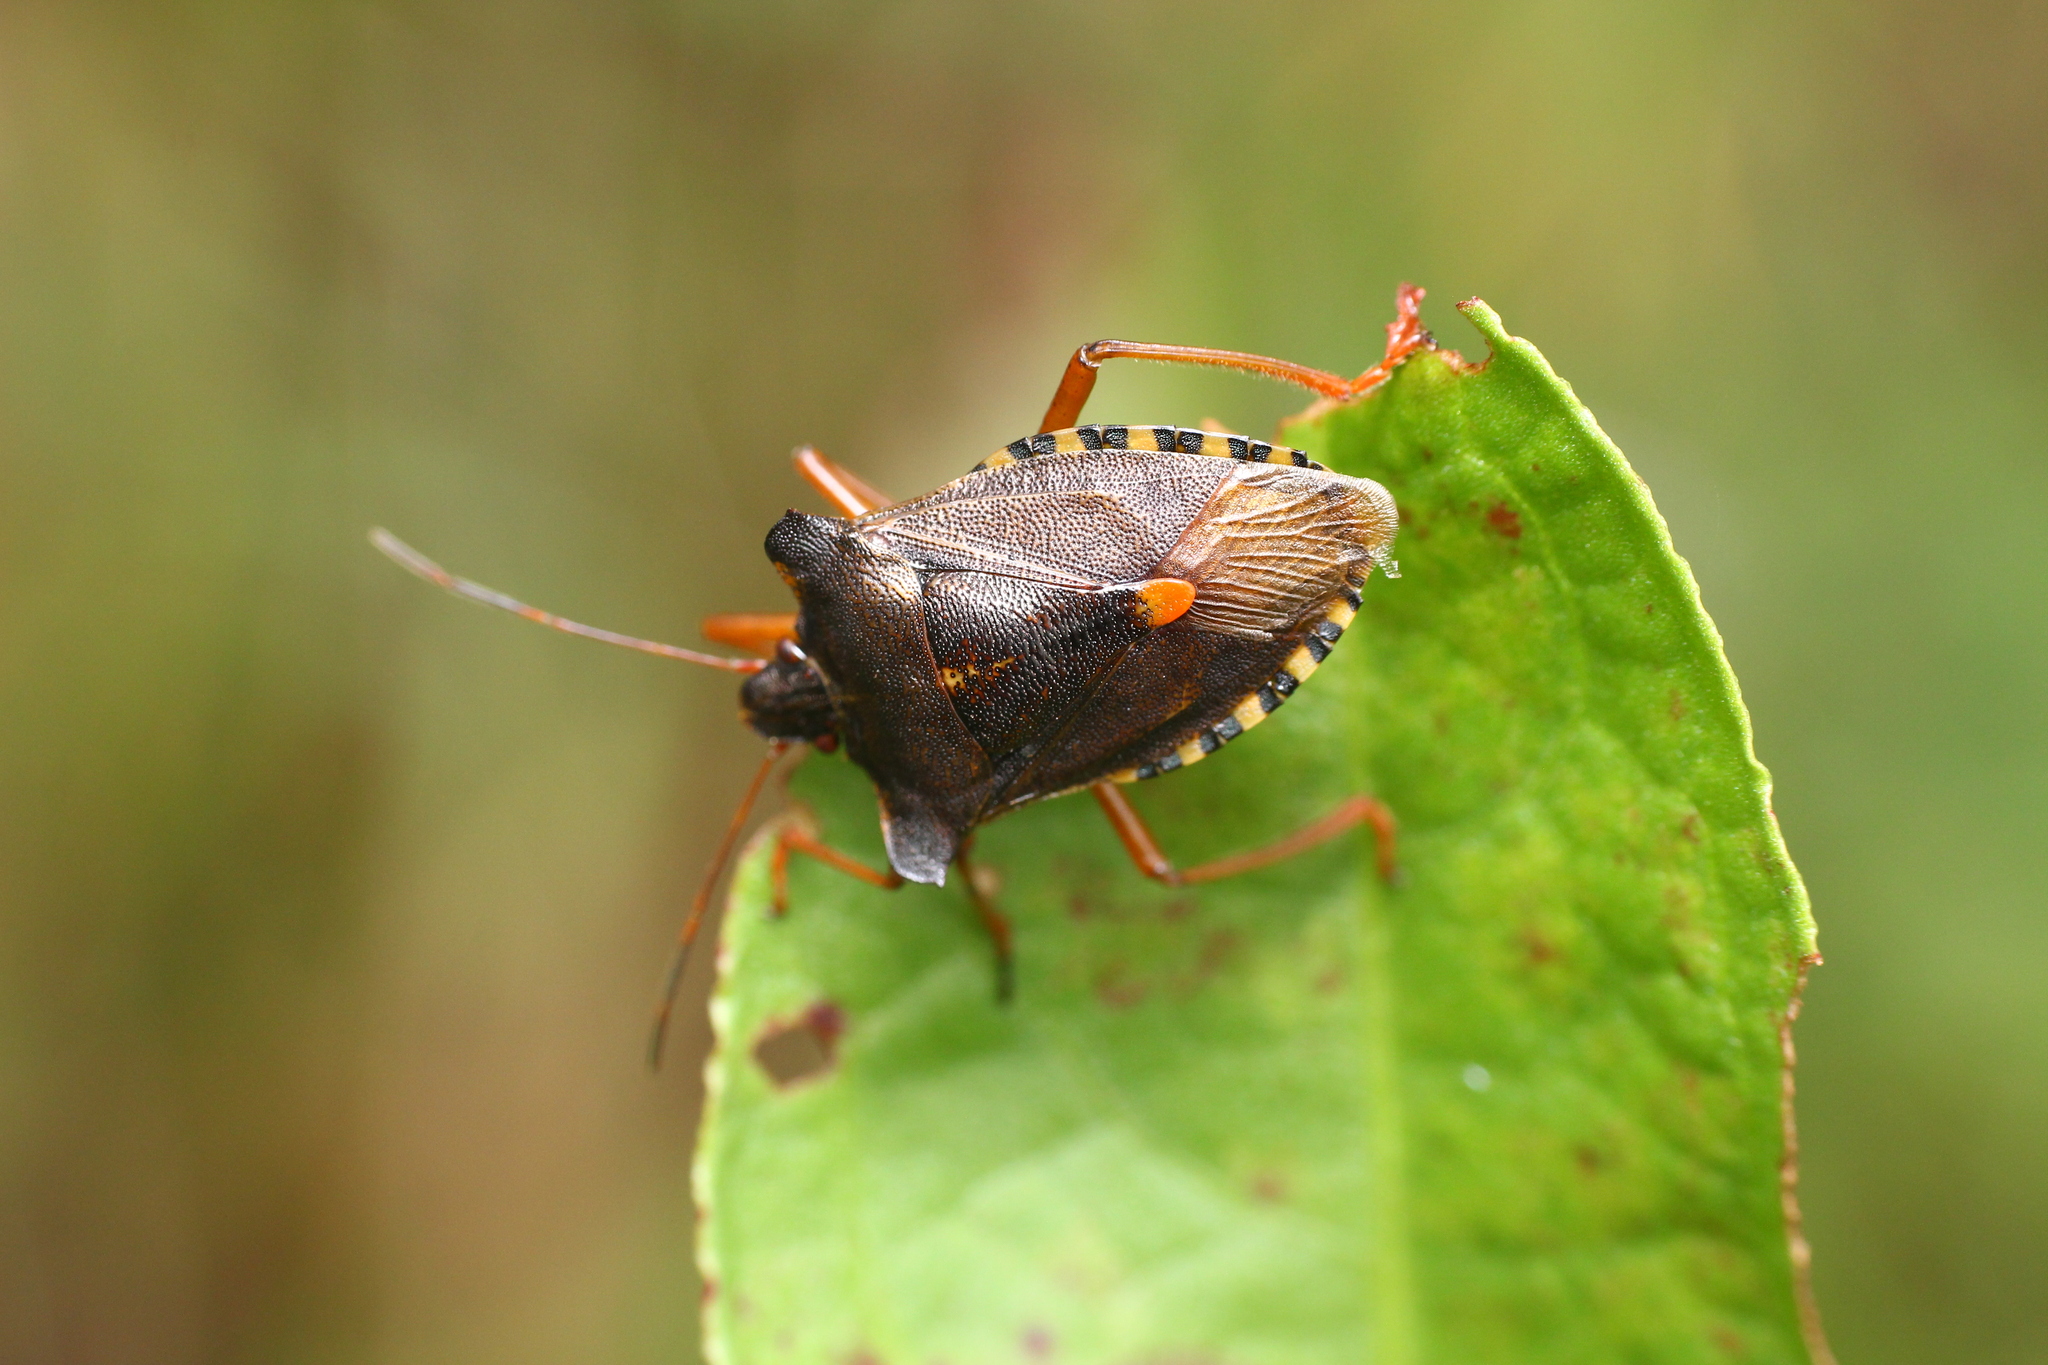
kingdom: Animalia
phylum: Arthropoda
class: Insecta
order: Hemiptera
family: Pentatomidae
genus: Pentatoma
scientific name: Pentatoma rufipes
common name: Forest bug
